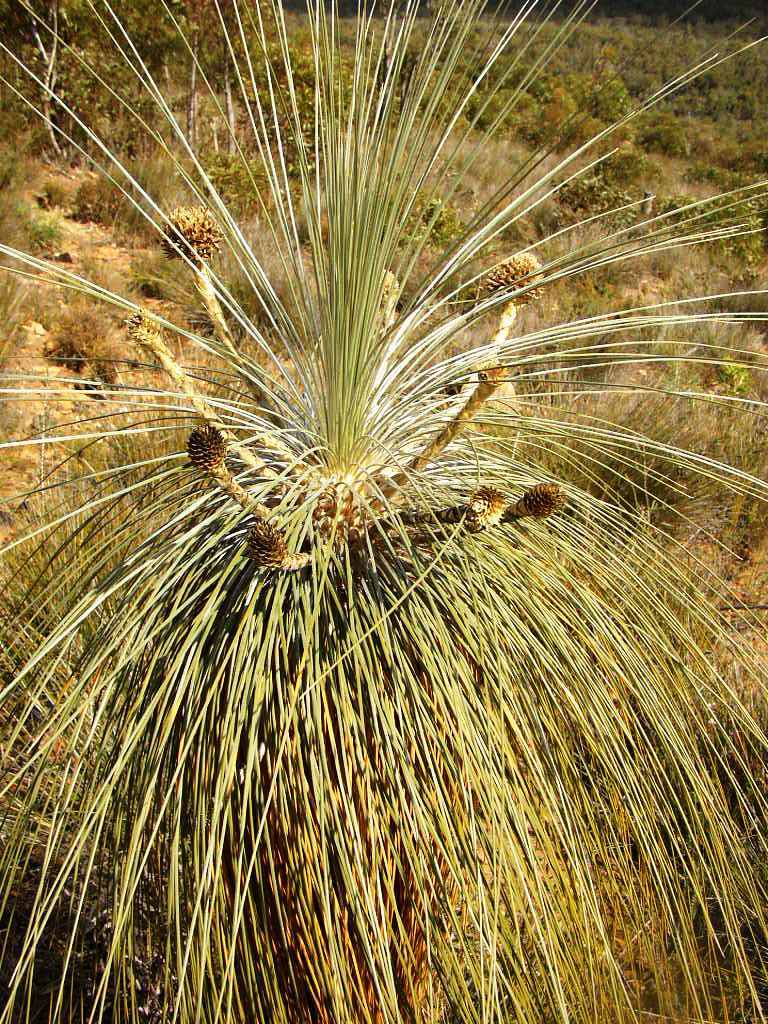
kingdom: Plantae
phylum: Tracheophyta
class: Liliopsida
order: Arecales
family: Dasypogonaceae
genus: Kingia
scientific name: Kingia australis
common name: Black gin
